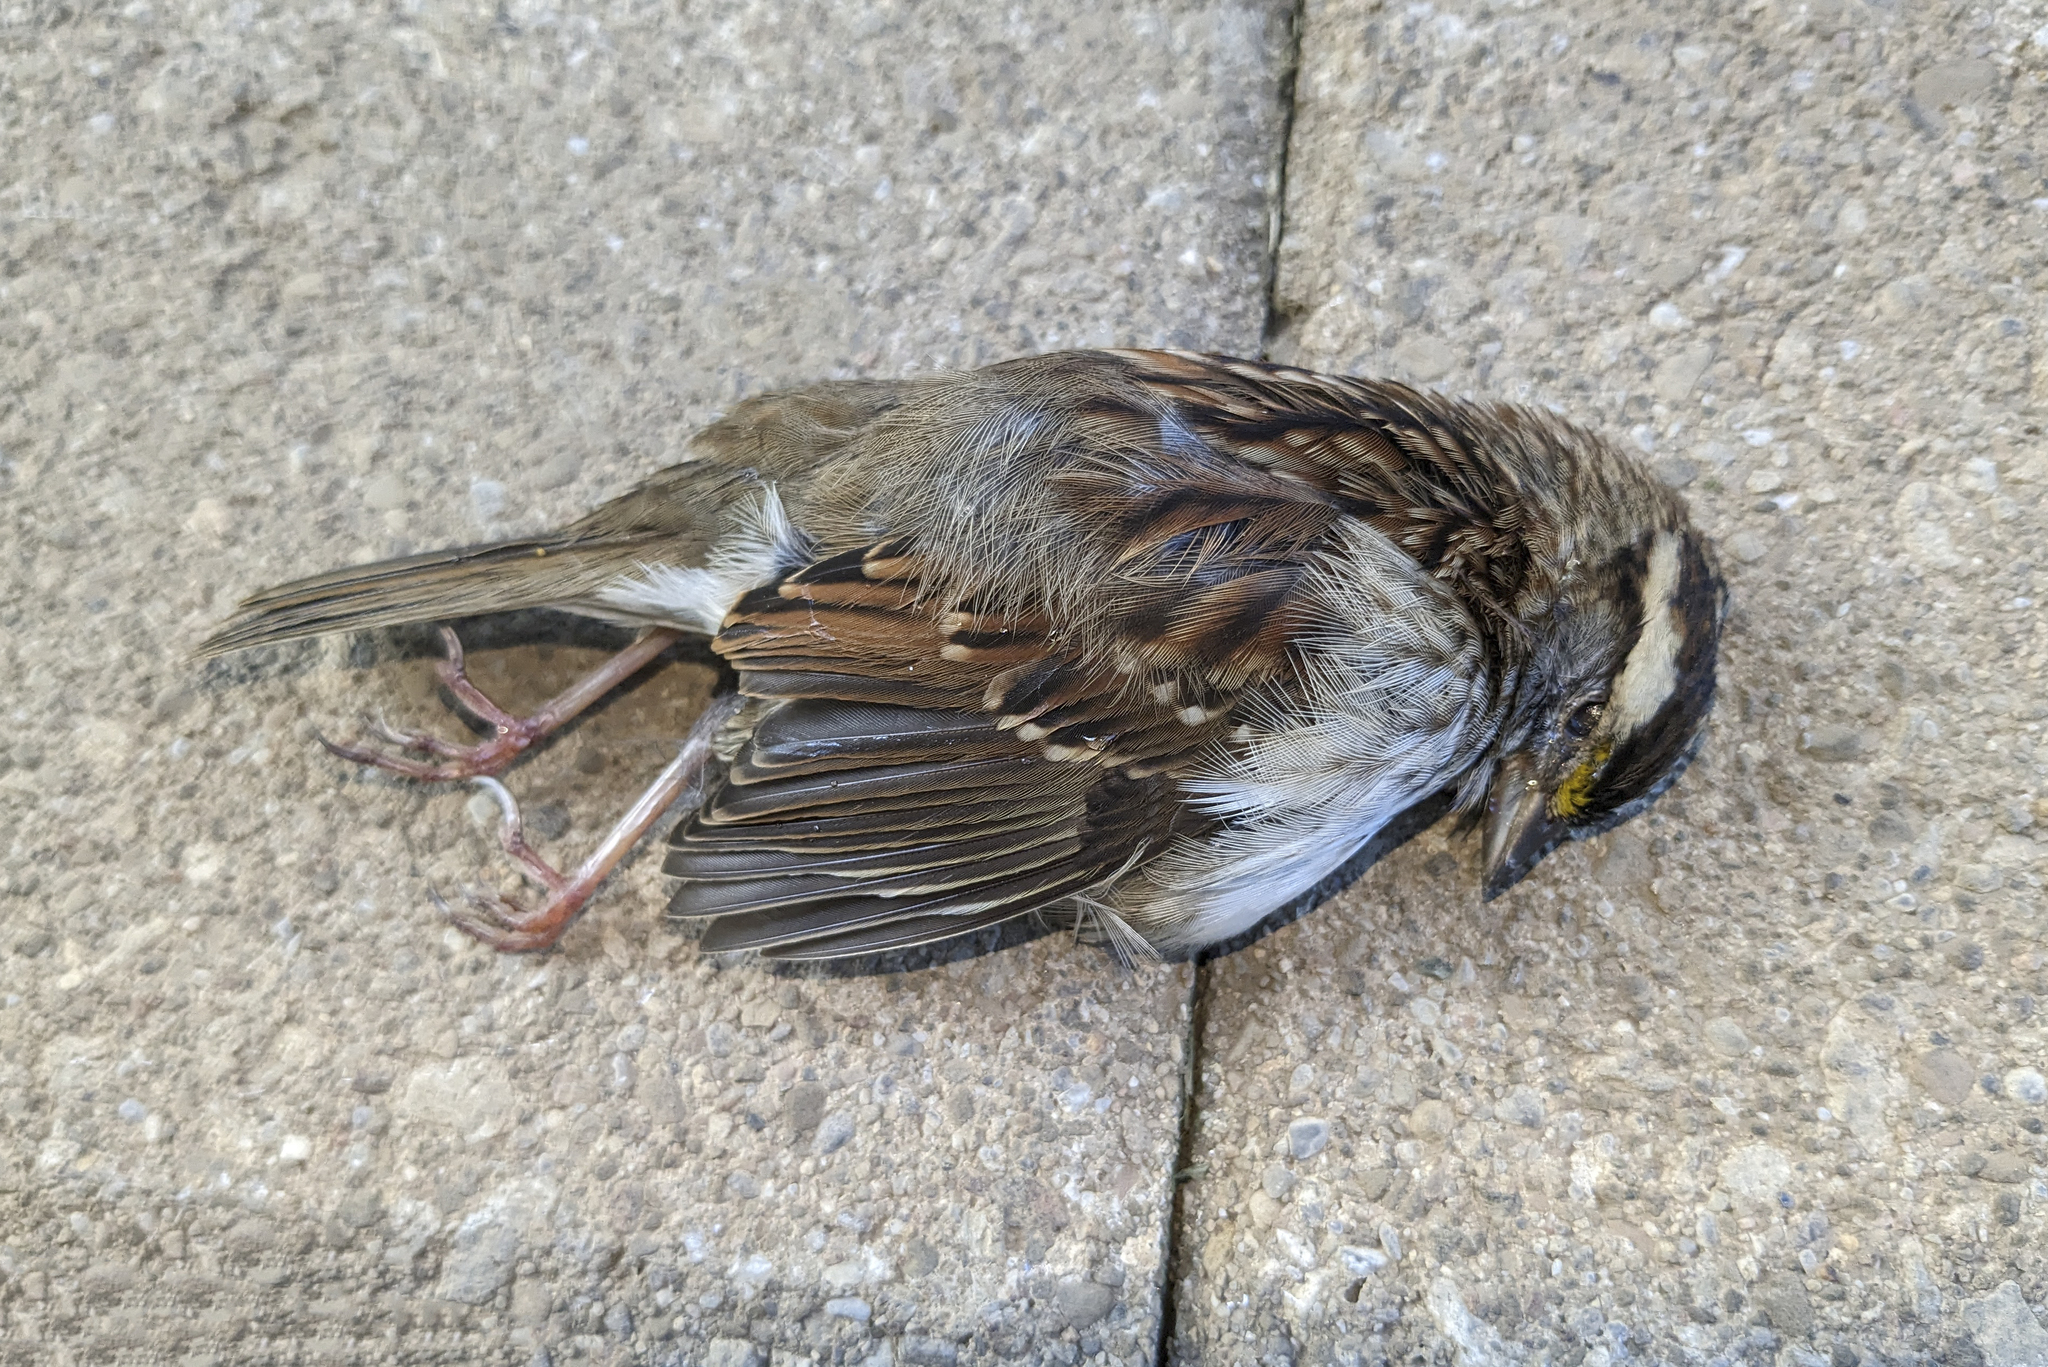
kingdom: Animalia
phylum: Chordata
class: Aves
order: Passeriformes
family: Passerellidae
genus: Zonotrichia
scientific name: Zonotrichia albicollis
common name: White-throated sparrow
